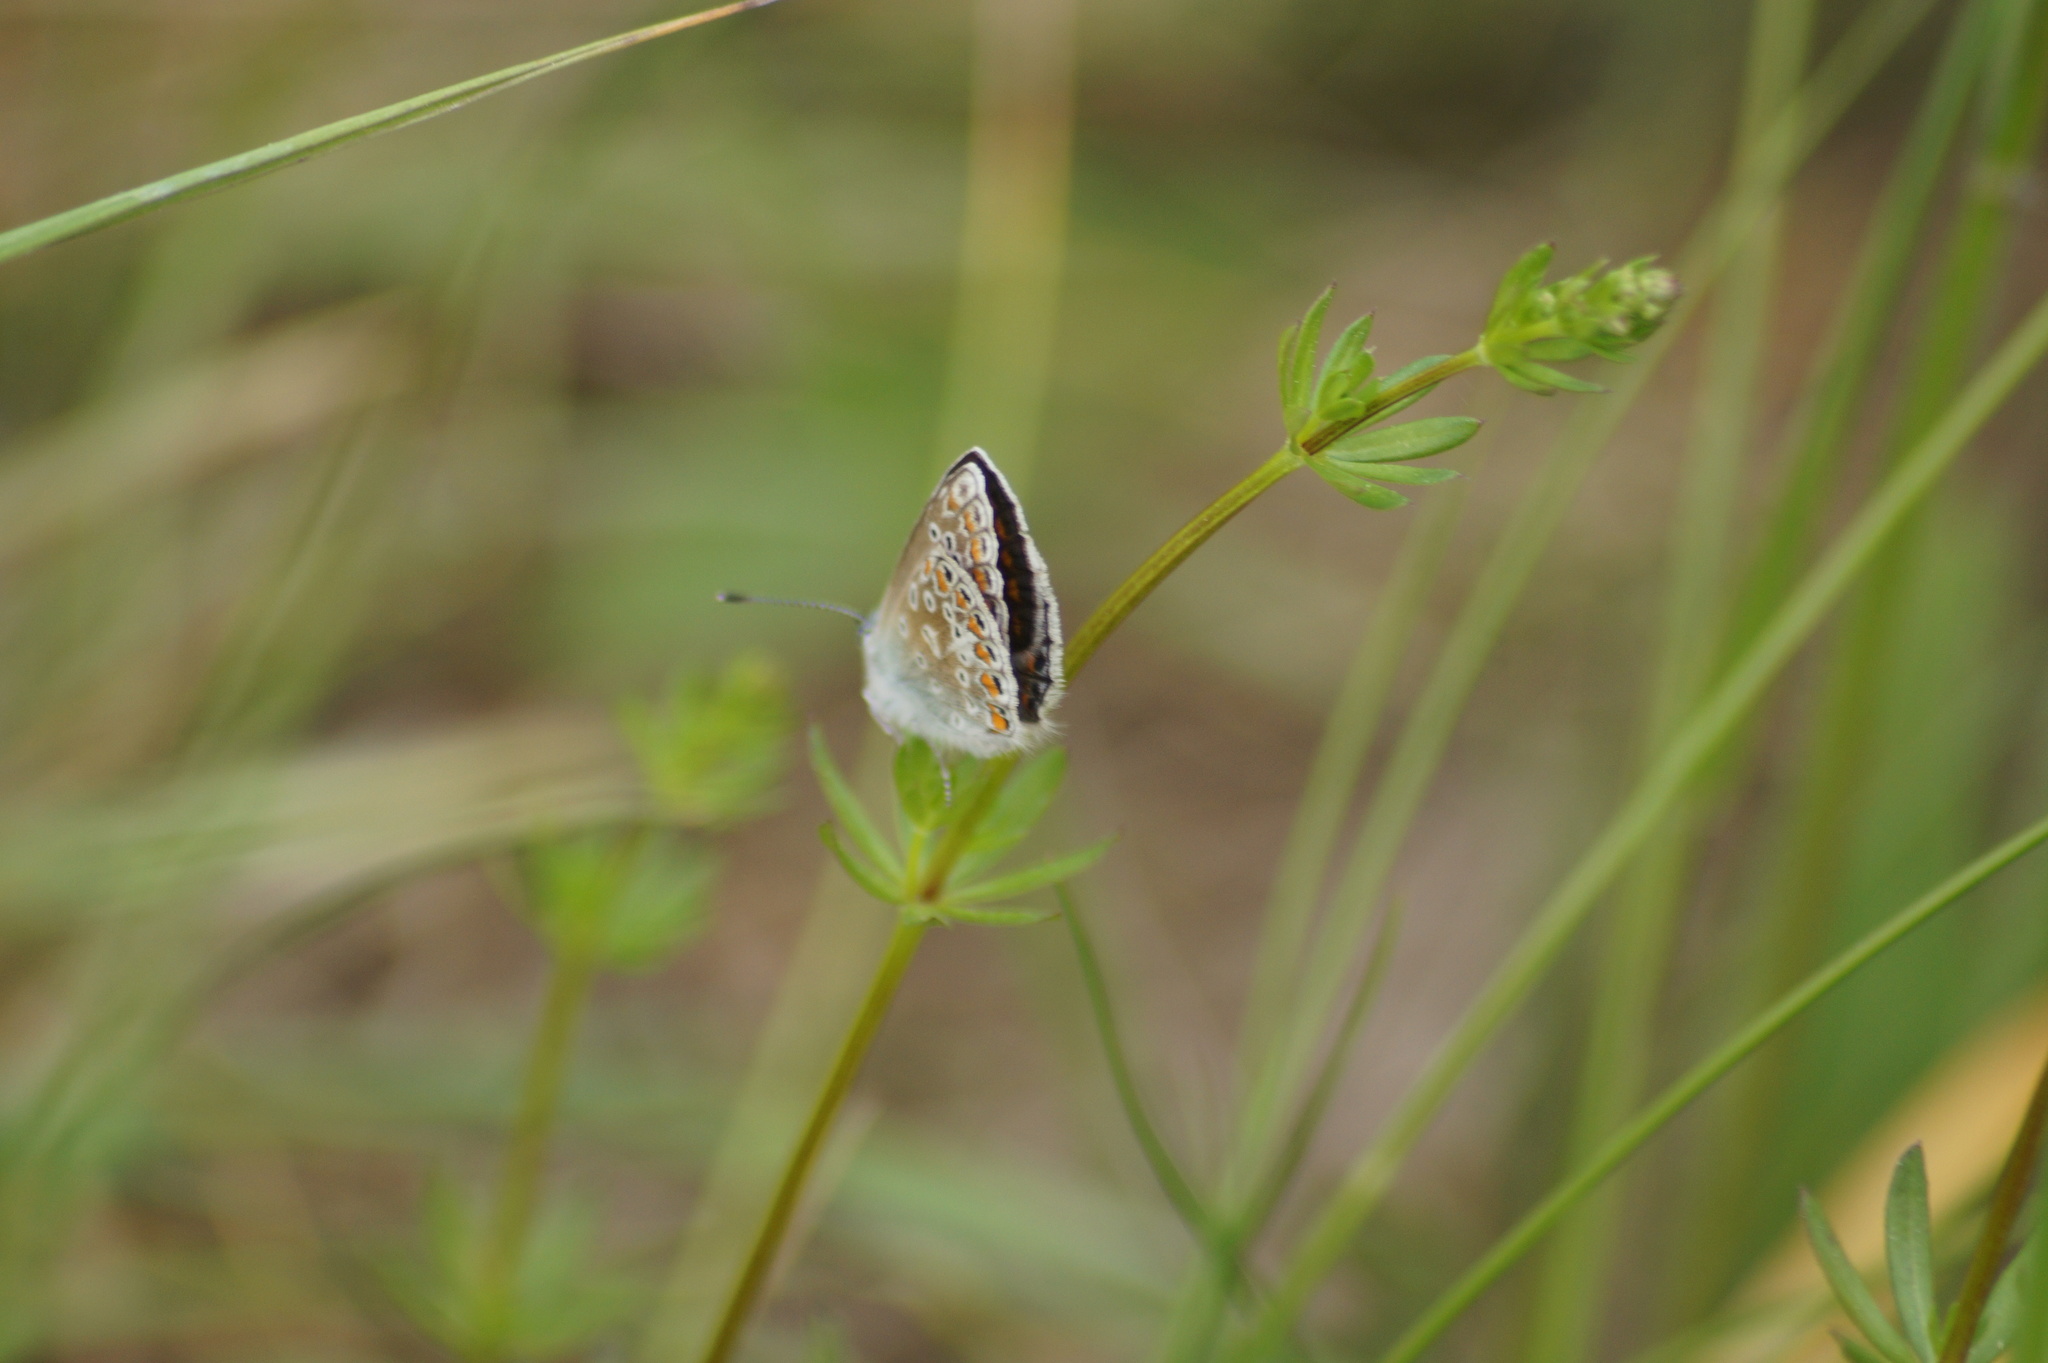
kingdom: Animalia
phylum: Arthropoda
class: Insecta
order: Lepidoptera
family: Lycaenidae
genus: Polyommatus
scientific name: Polyommatus icarus
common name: Common blue
